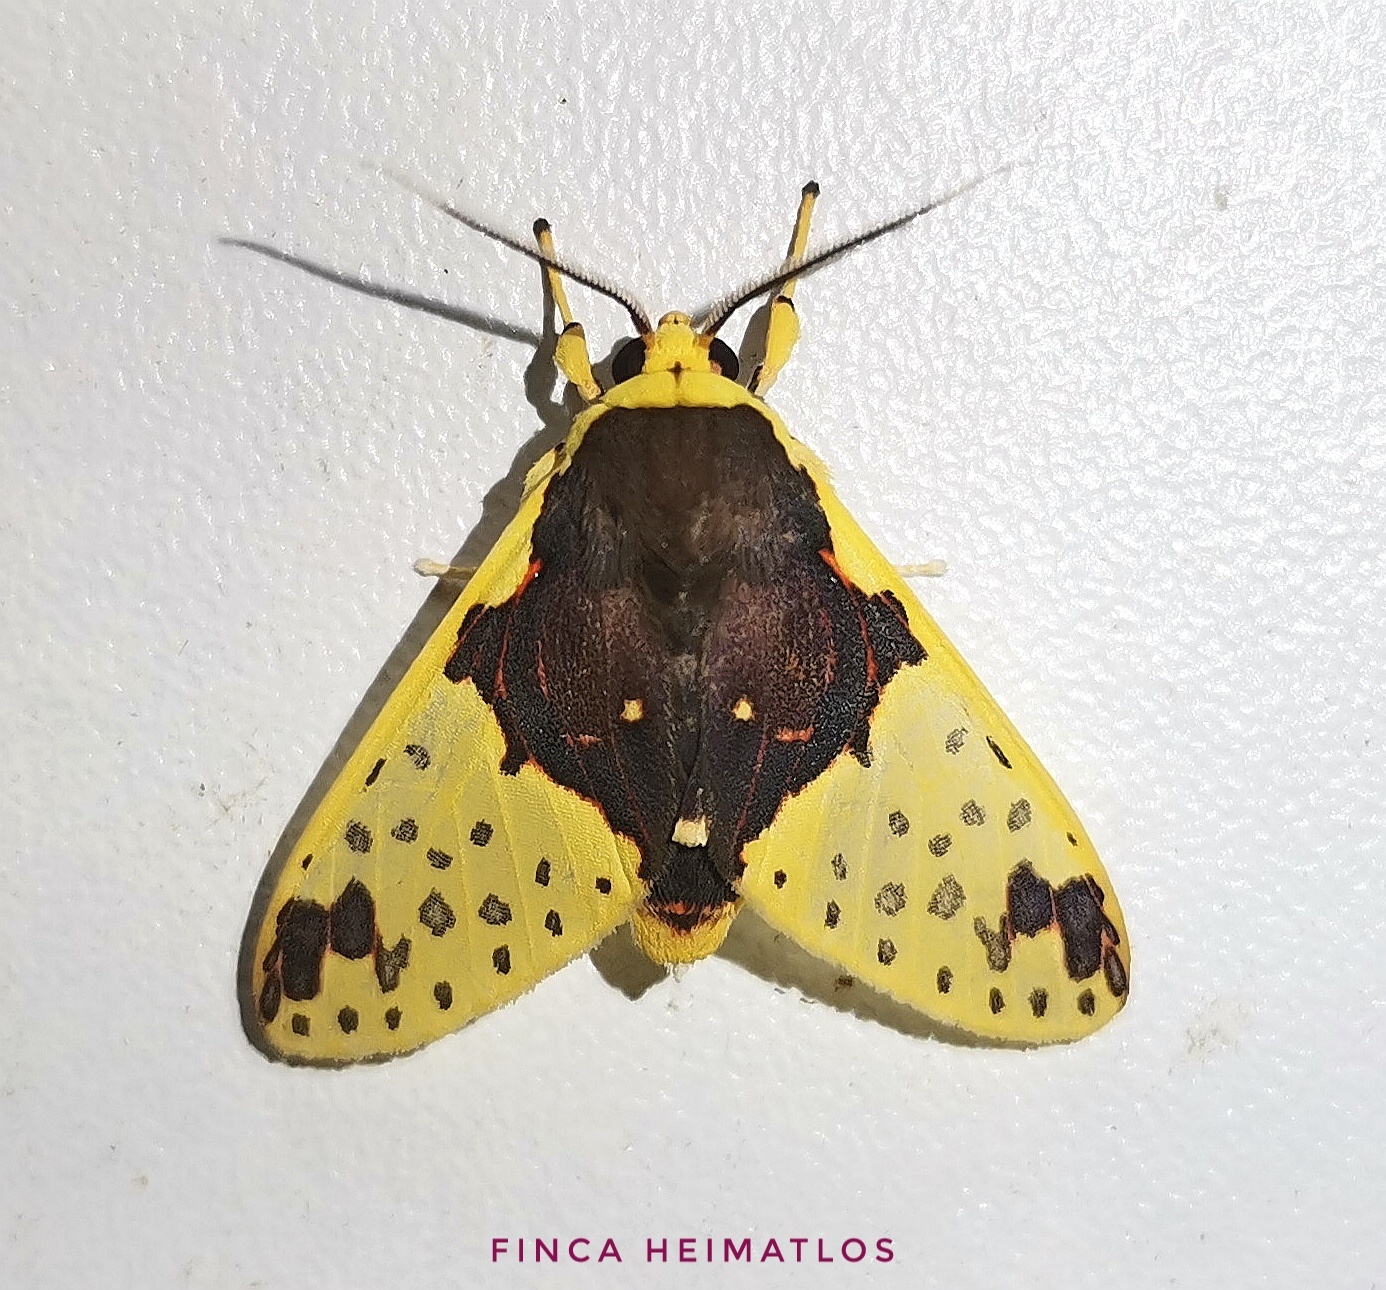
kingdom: Animalia
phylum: Arthropoda
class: Insecta
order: Lepidoptera
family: Erebidae
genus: Amaxia
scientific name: Amaxia consistens
